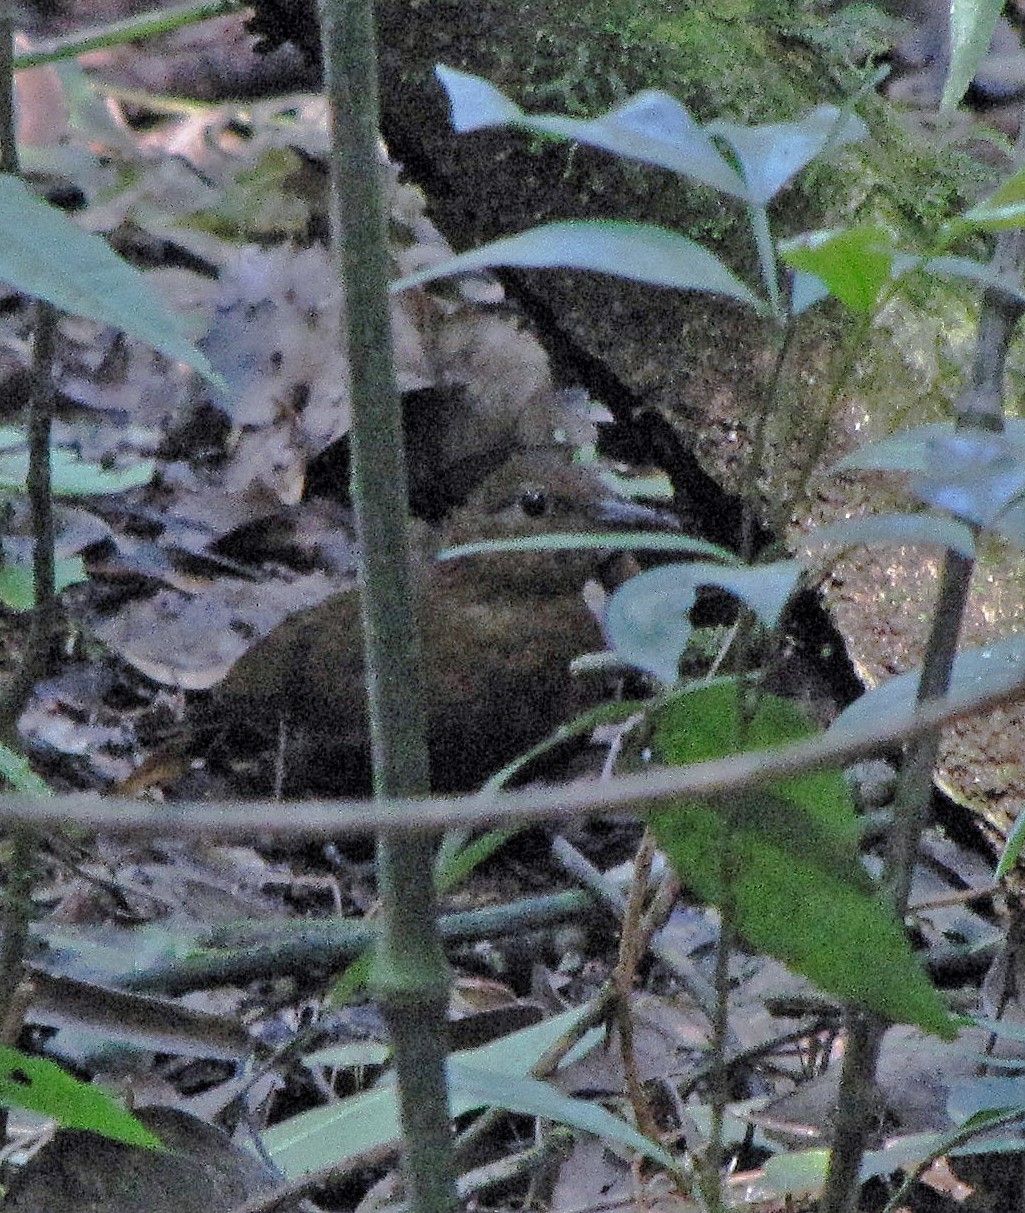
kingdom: Animalia
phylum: Chordata
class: Aves
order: Passeriformes
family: Furnariidae
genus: Sclerurus
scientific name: Sclerurus scansor
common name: Rufous-breasted leaftosser
